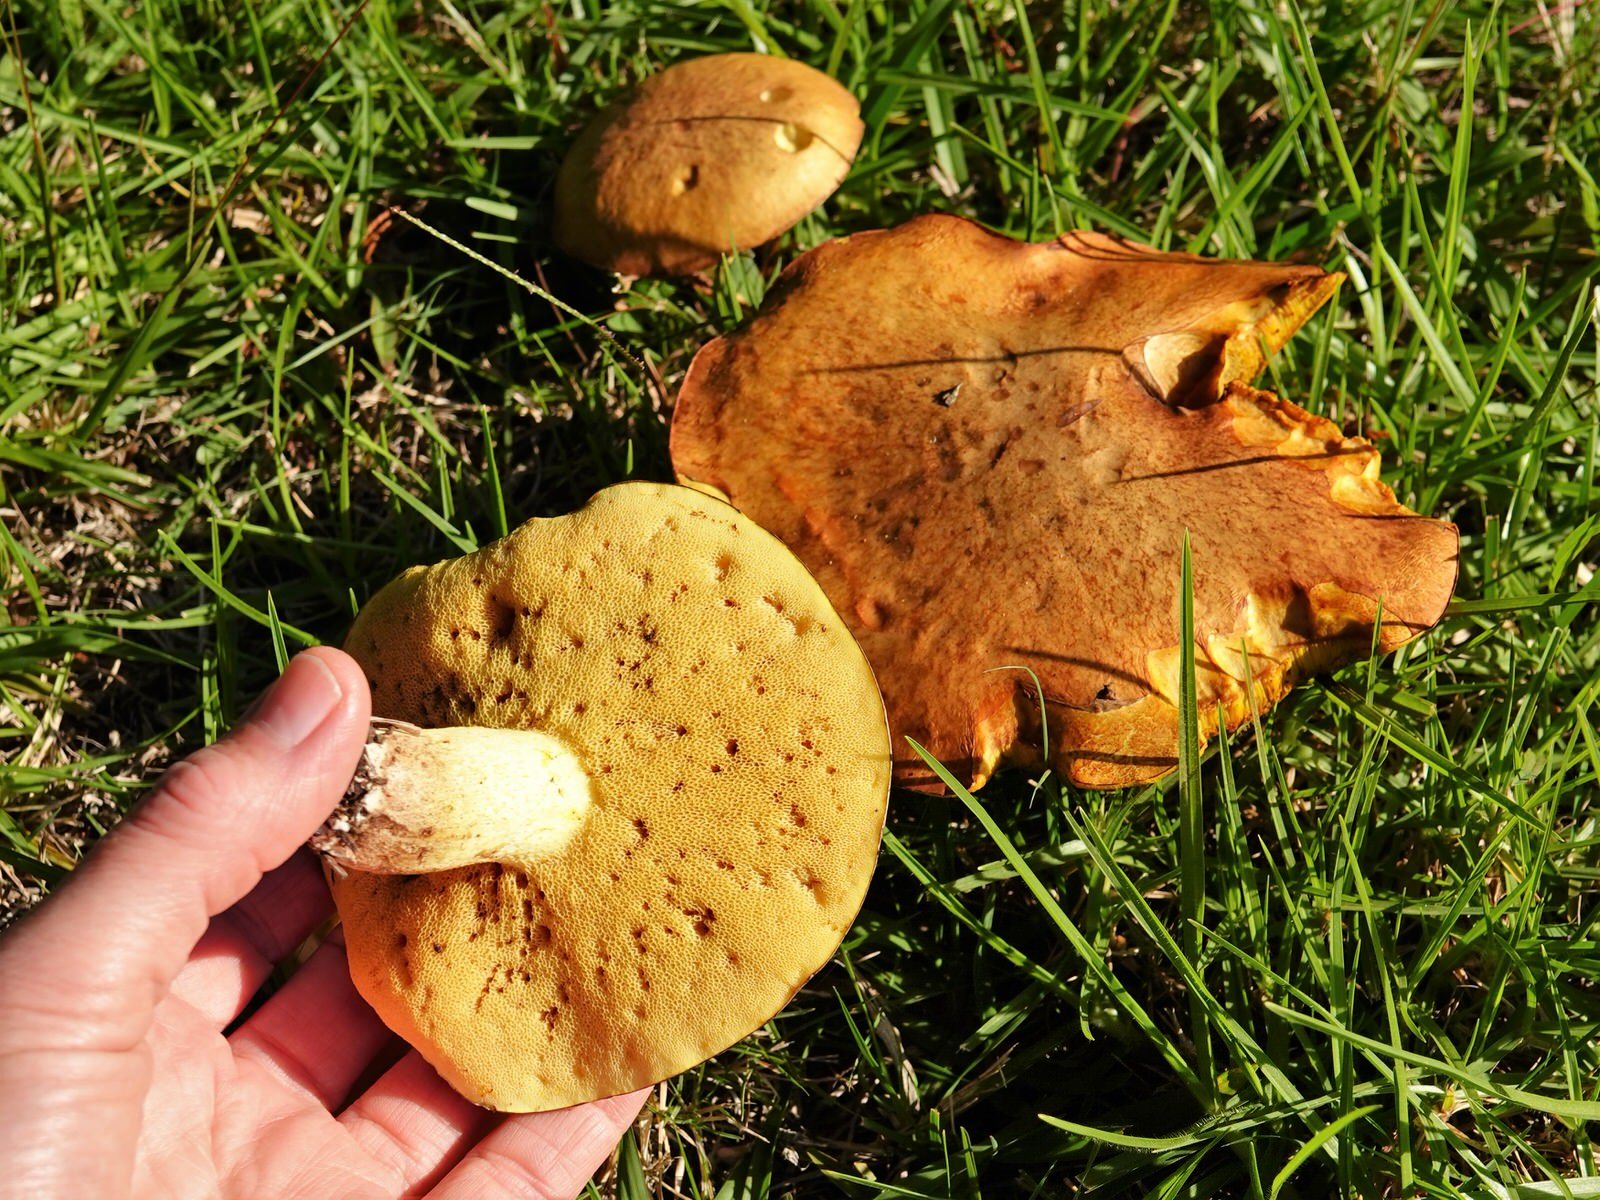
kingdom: Fungi
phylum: Basidiomycota
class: Agaricomycetes
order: Boletales
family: Suillaceae
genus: Suillus
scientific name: Suillus granulatus
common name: Weeping bolete
